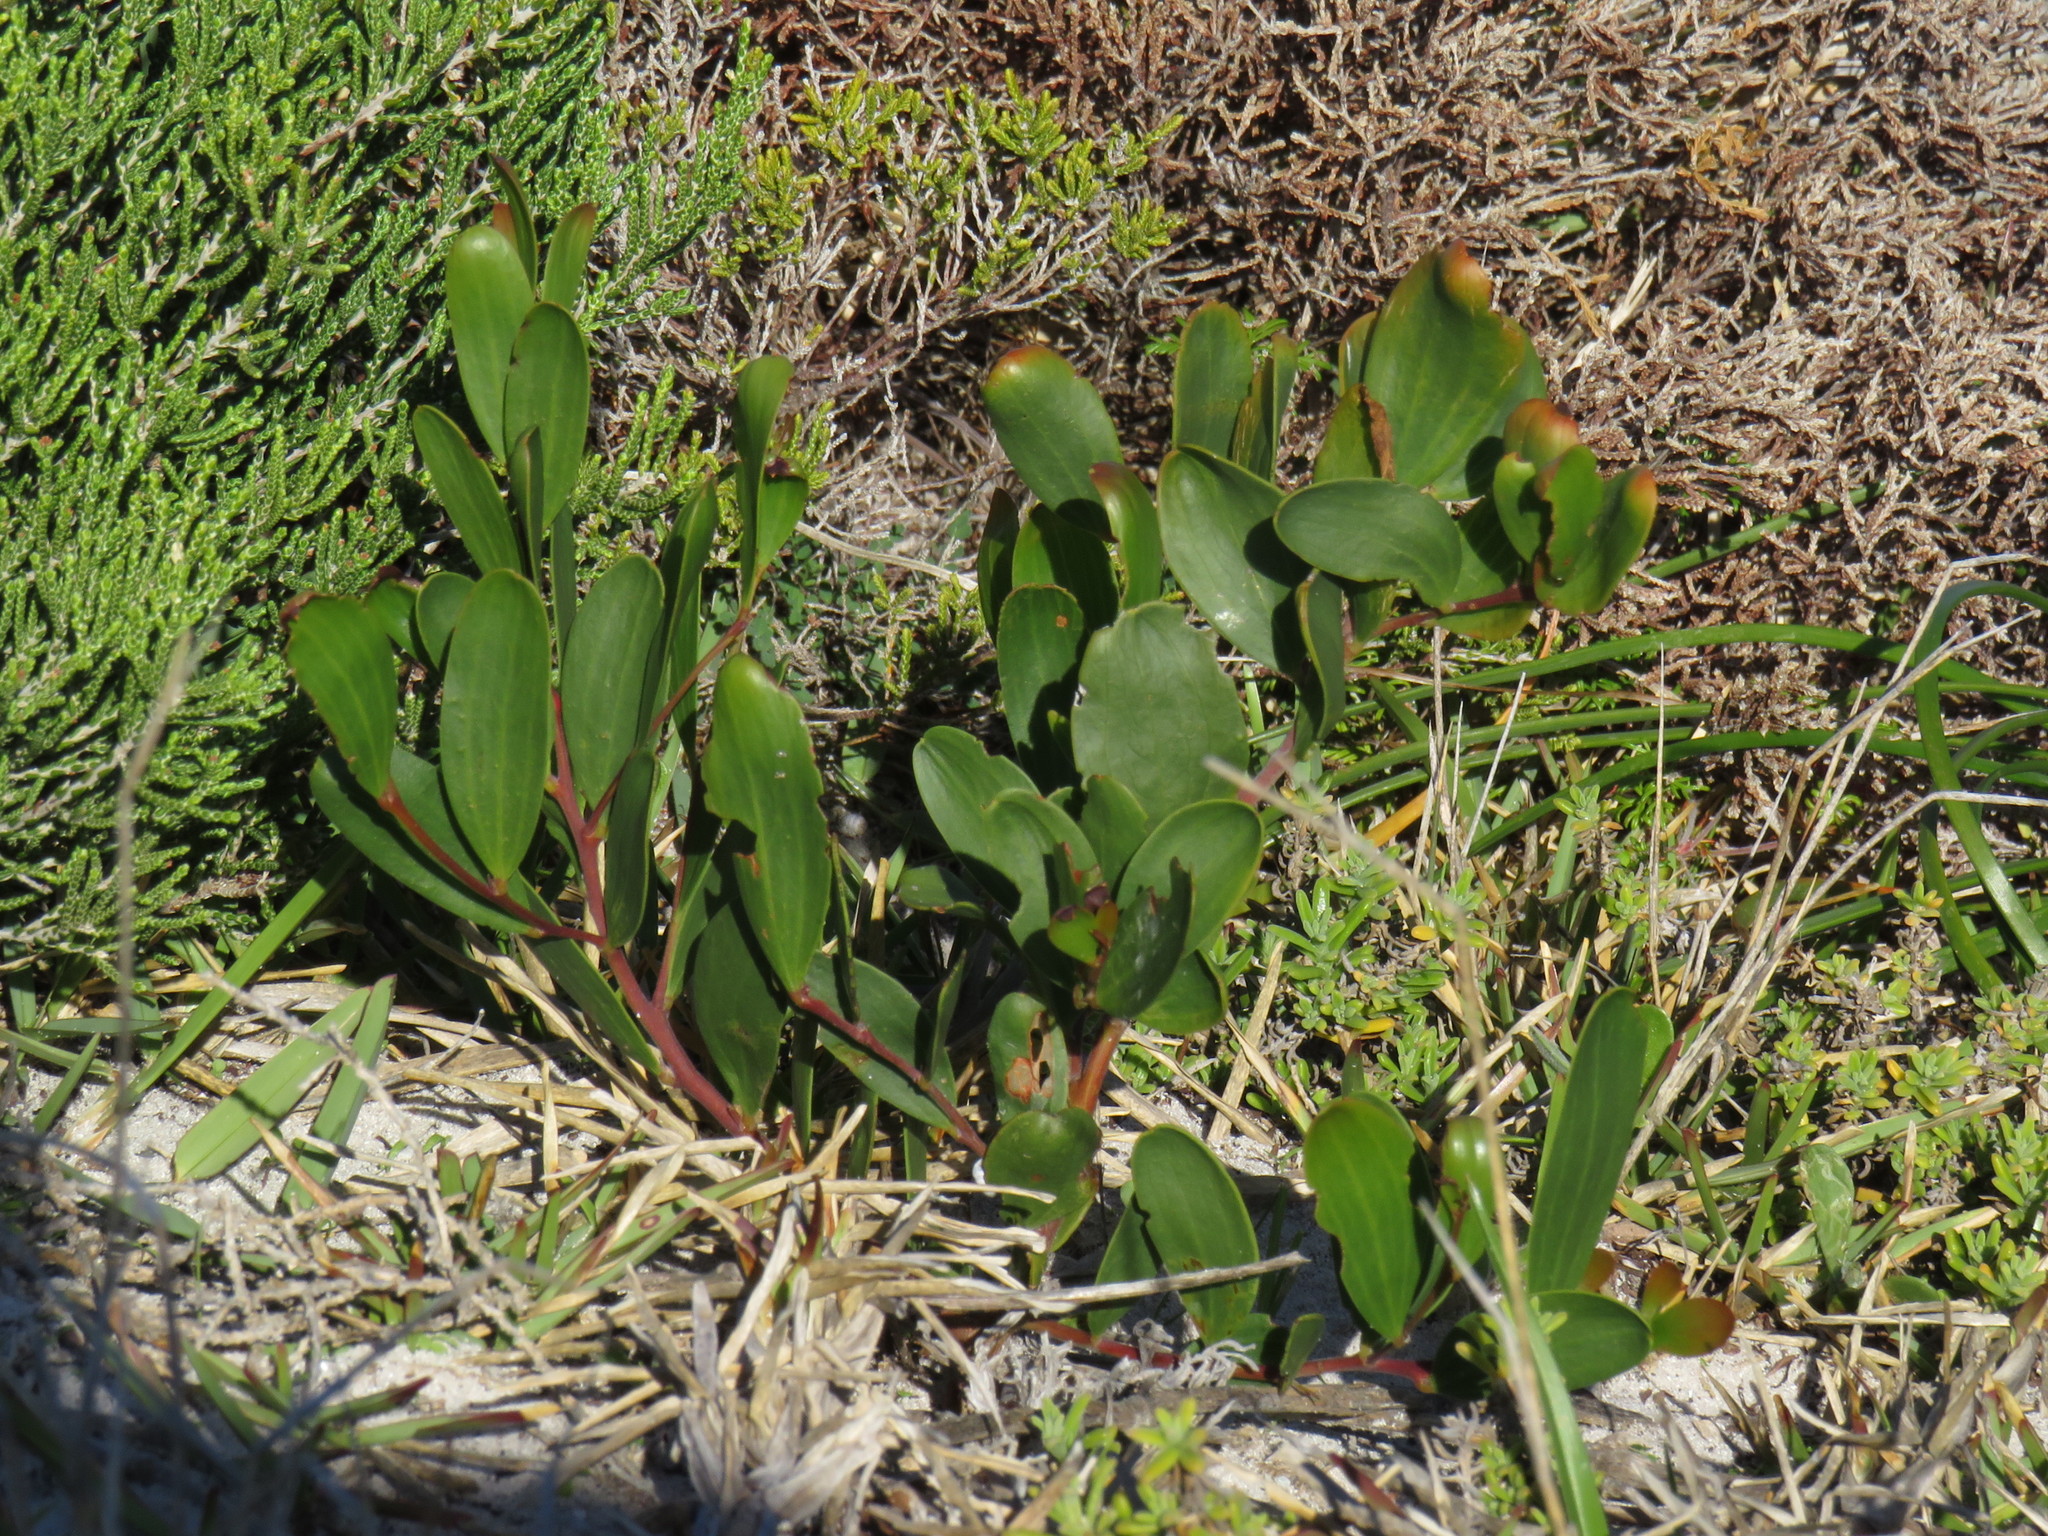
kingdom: Plantae
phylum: Tracheophyta
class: Magnoliopsida
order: Fabales
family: Fabaceae
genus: Acacia
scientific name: Acacia cyclops
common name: Coastal wattle
